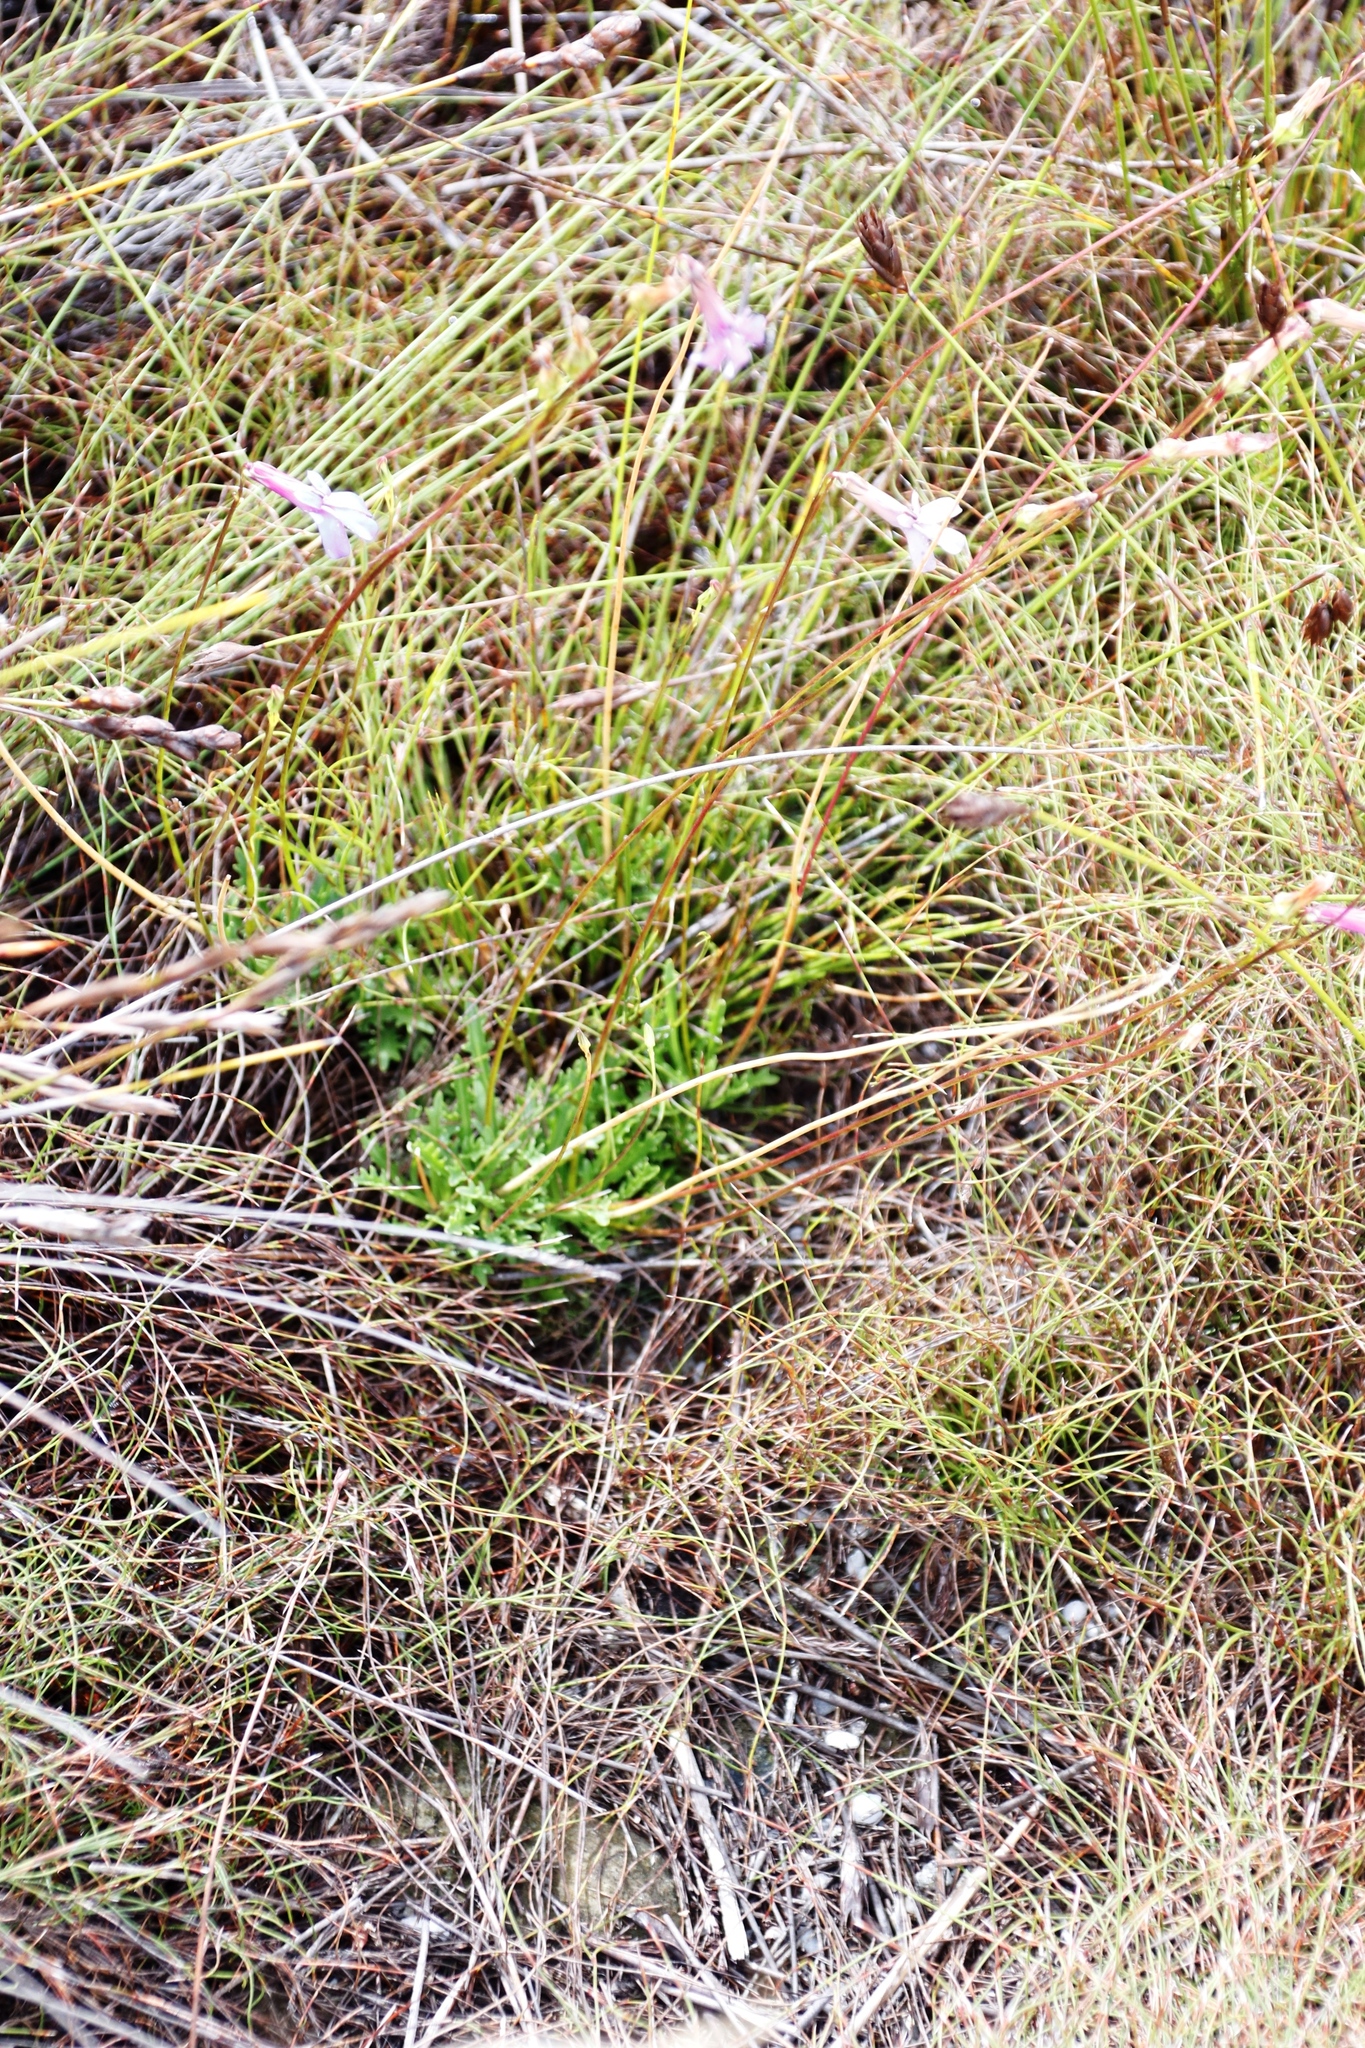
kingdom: Plantae
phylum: Tracheophyta
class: Magnoliopsida
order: Asterales
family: Campanulaceae
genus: Lobelia
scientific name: Lobelia coronopifolia
